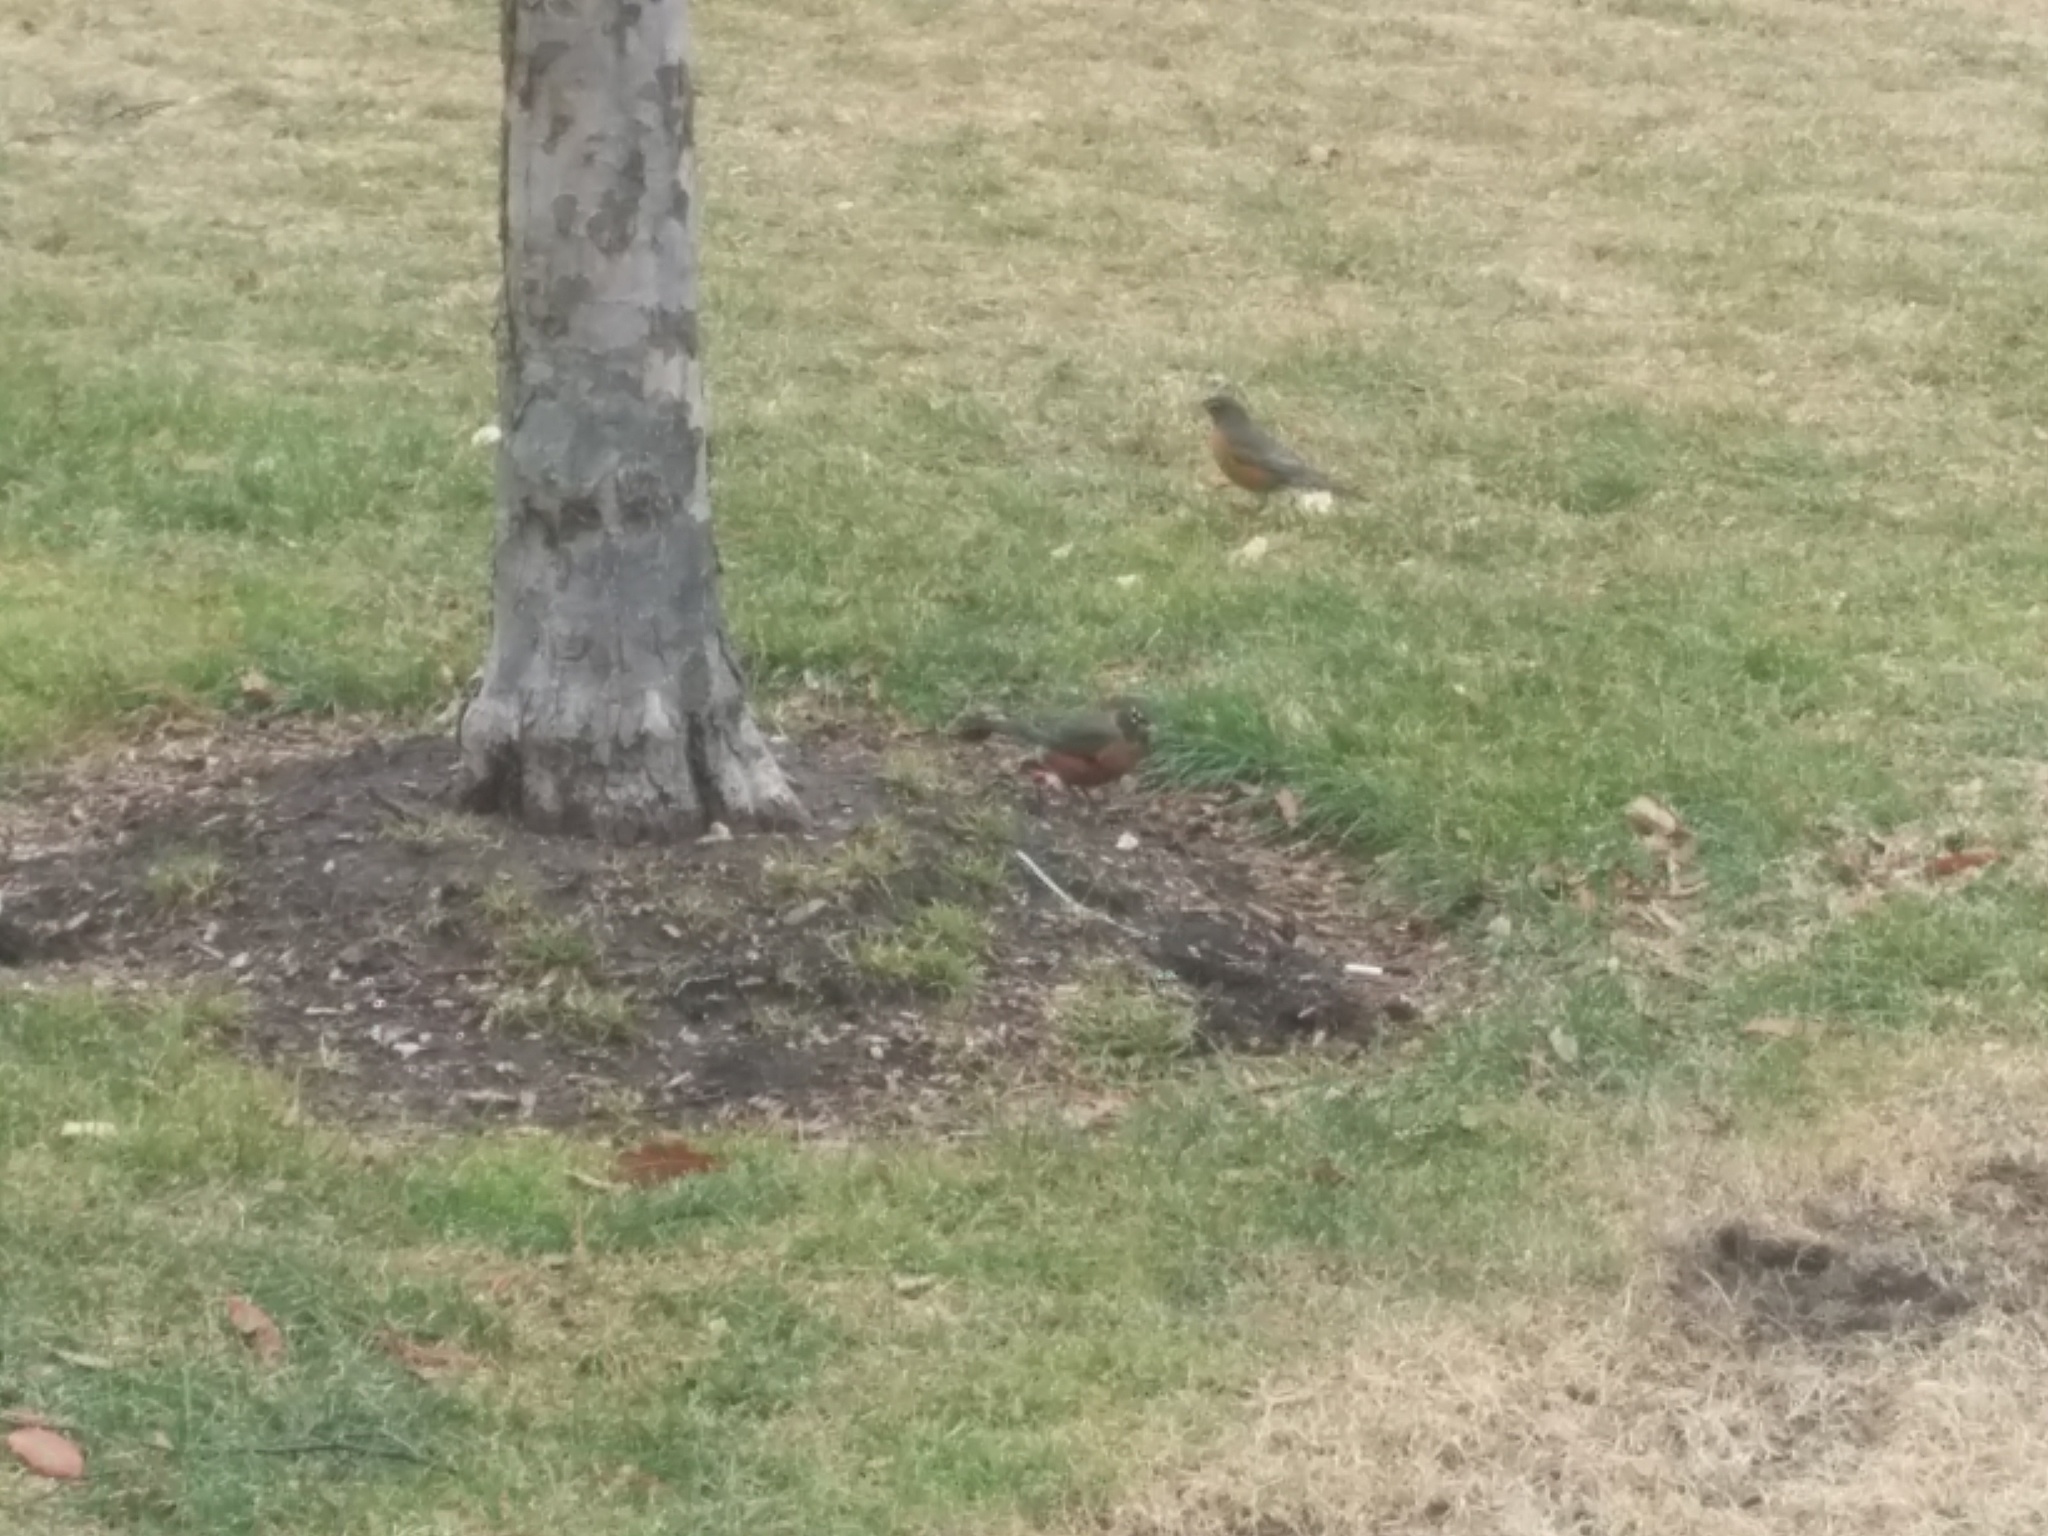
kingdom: Animalia
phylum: Chordata
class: Aves
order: Passeriformes
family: Turdidae
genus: Turdus
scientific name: Turdus migratorius
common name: American robin
